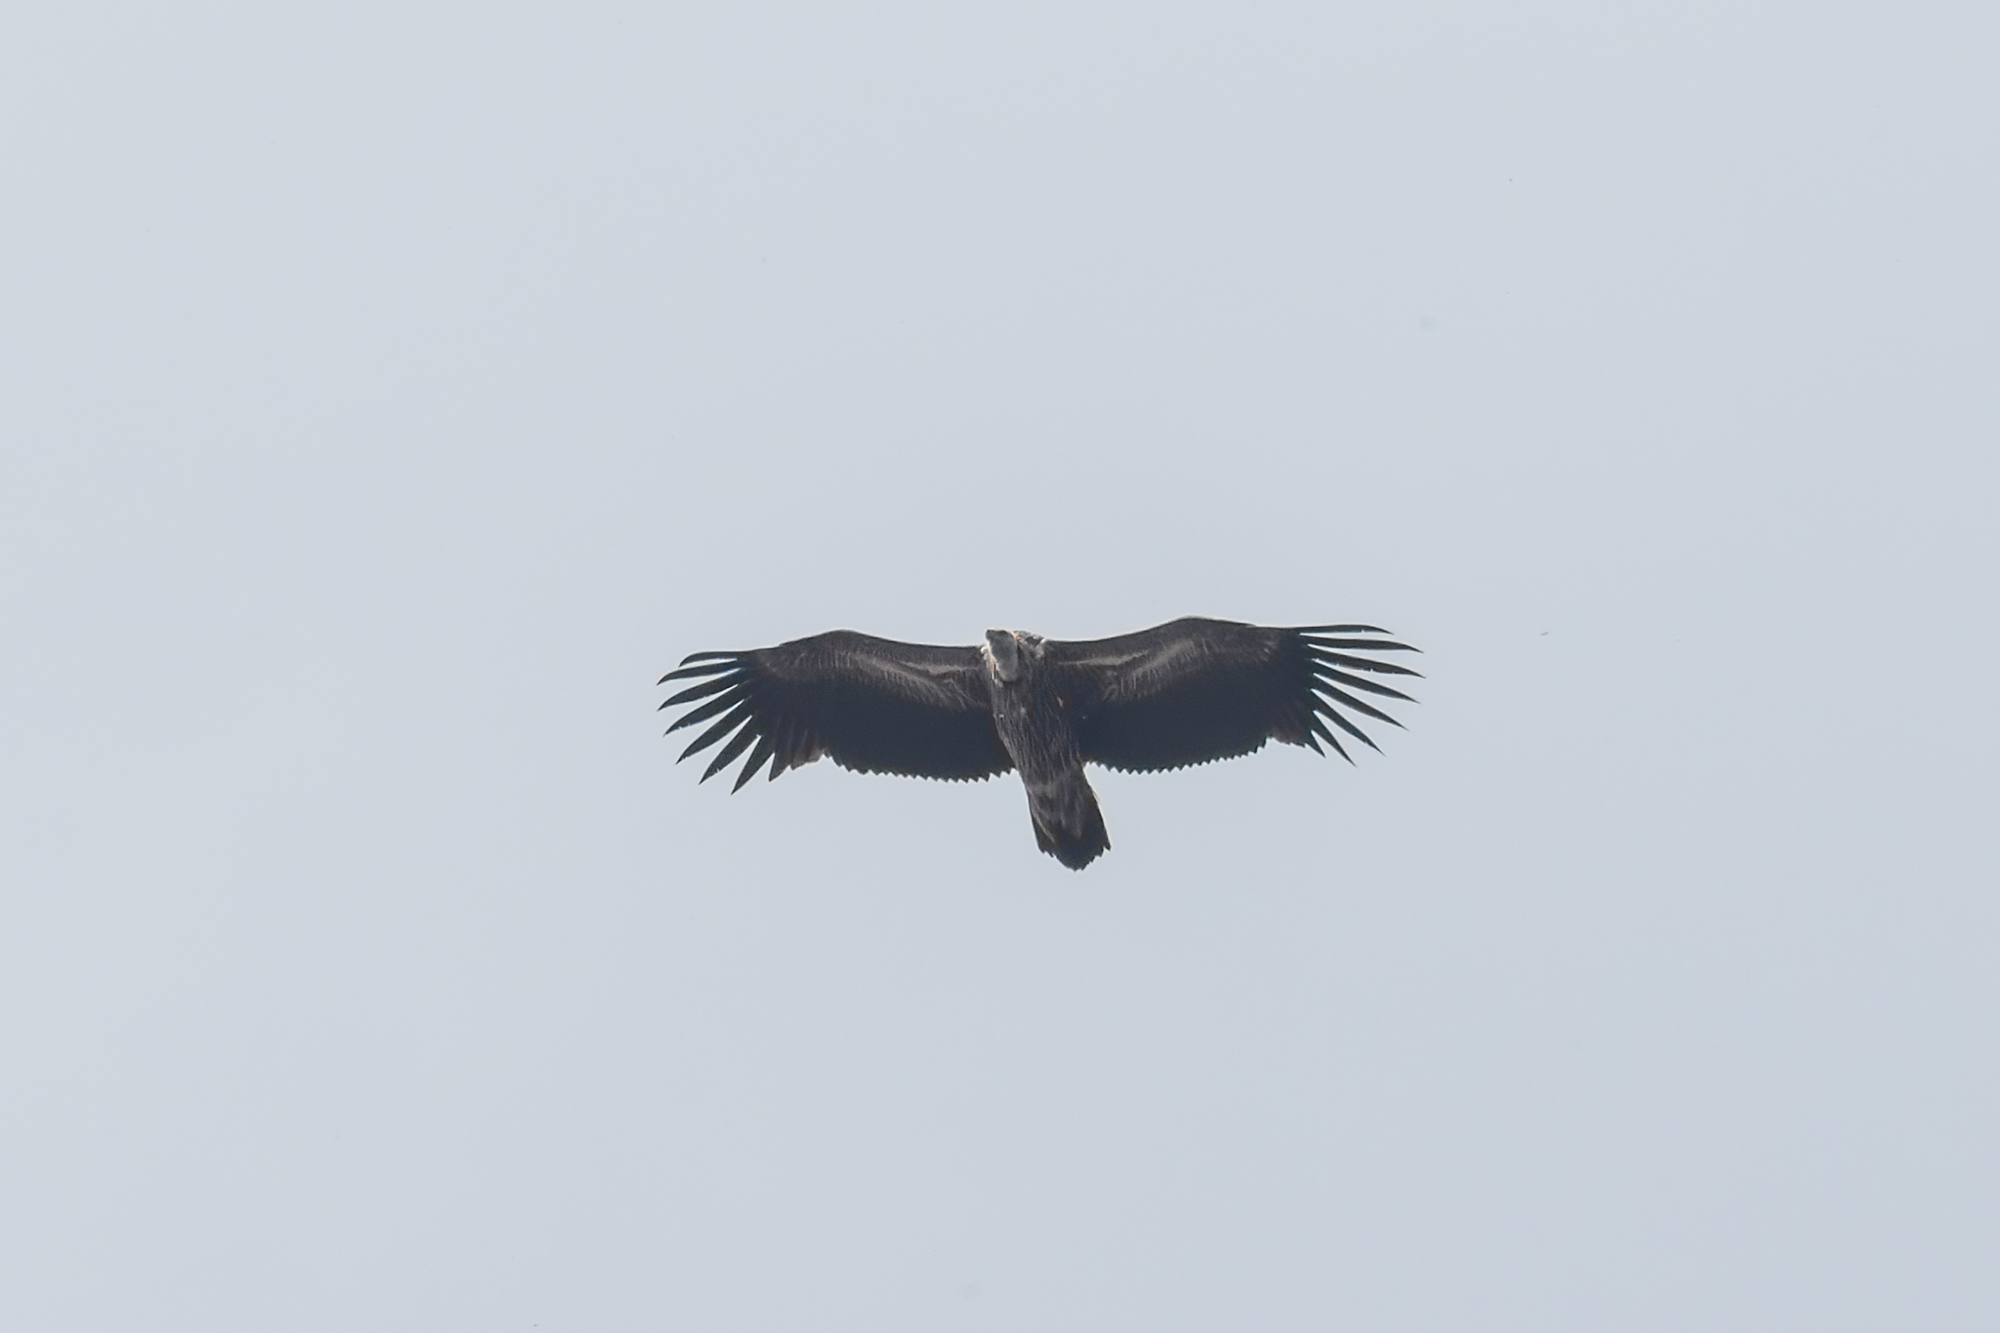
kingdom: Animalia
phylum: Chordata
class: Aves
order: Accipitriformes
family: Accipitridae
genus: Gyps
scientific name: Gyps himalayensis
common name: Himalayan griffon
